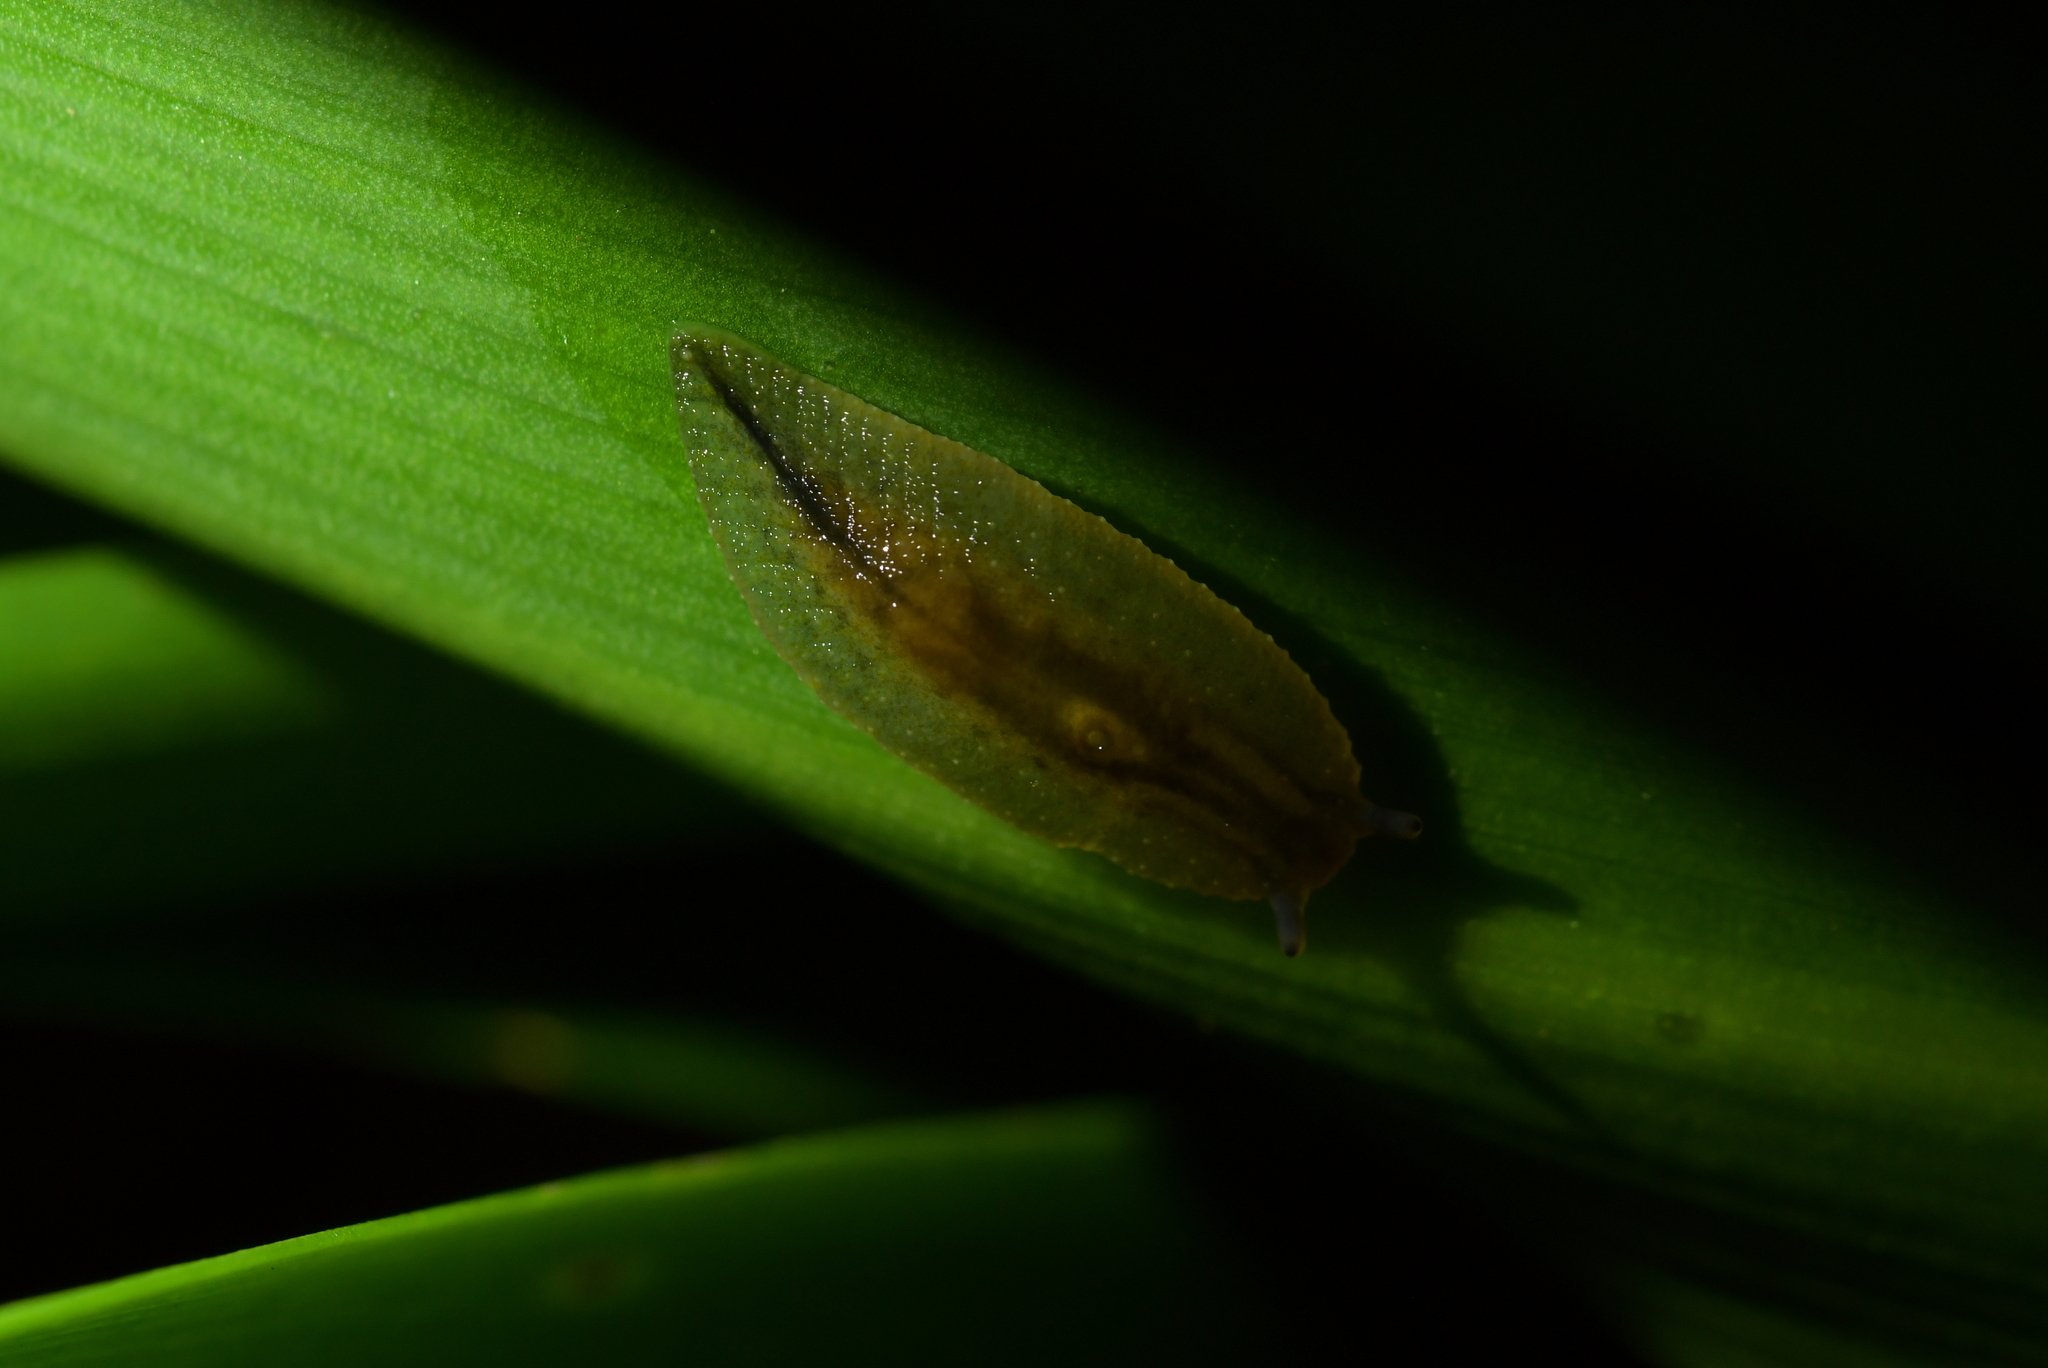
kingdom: Animalia
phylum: Mollusca
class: Gastropoda
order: Stylommatophora
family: Athoracophoridae
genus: Athoracophorus
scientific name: Athoracophorus bitentaculatus
